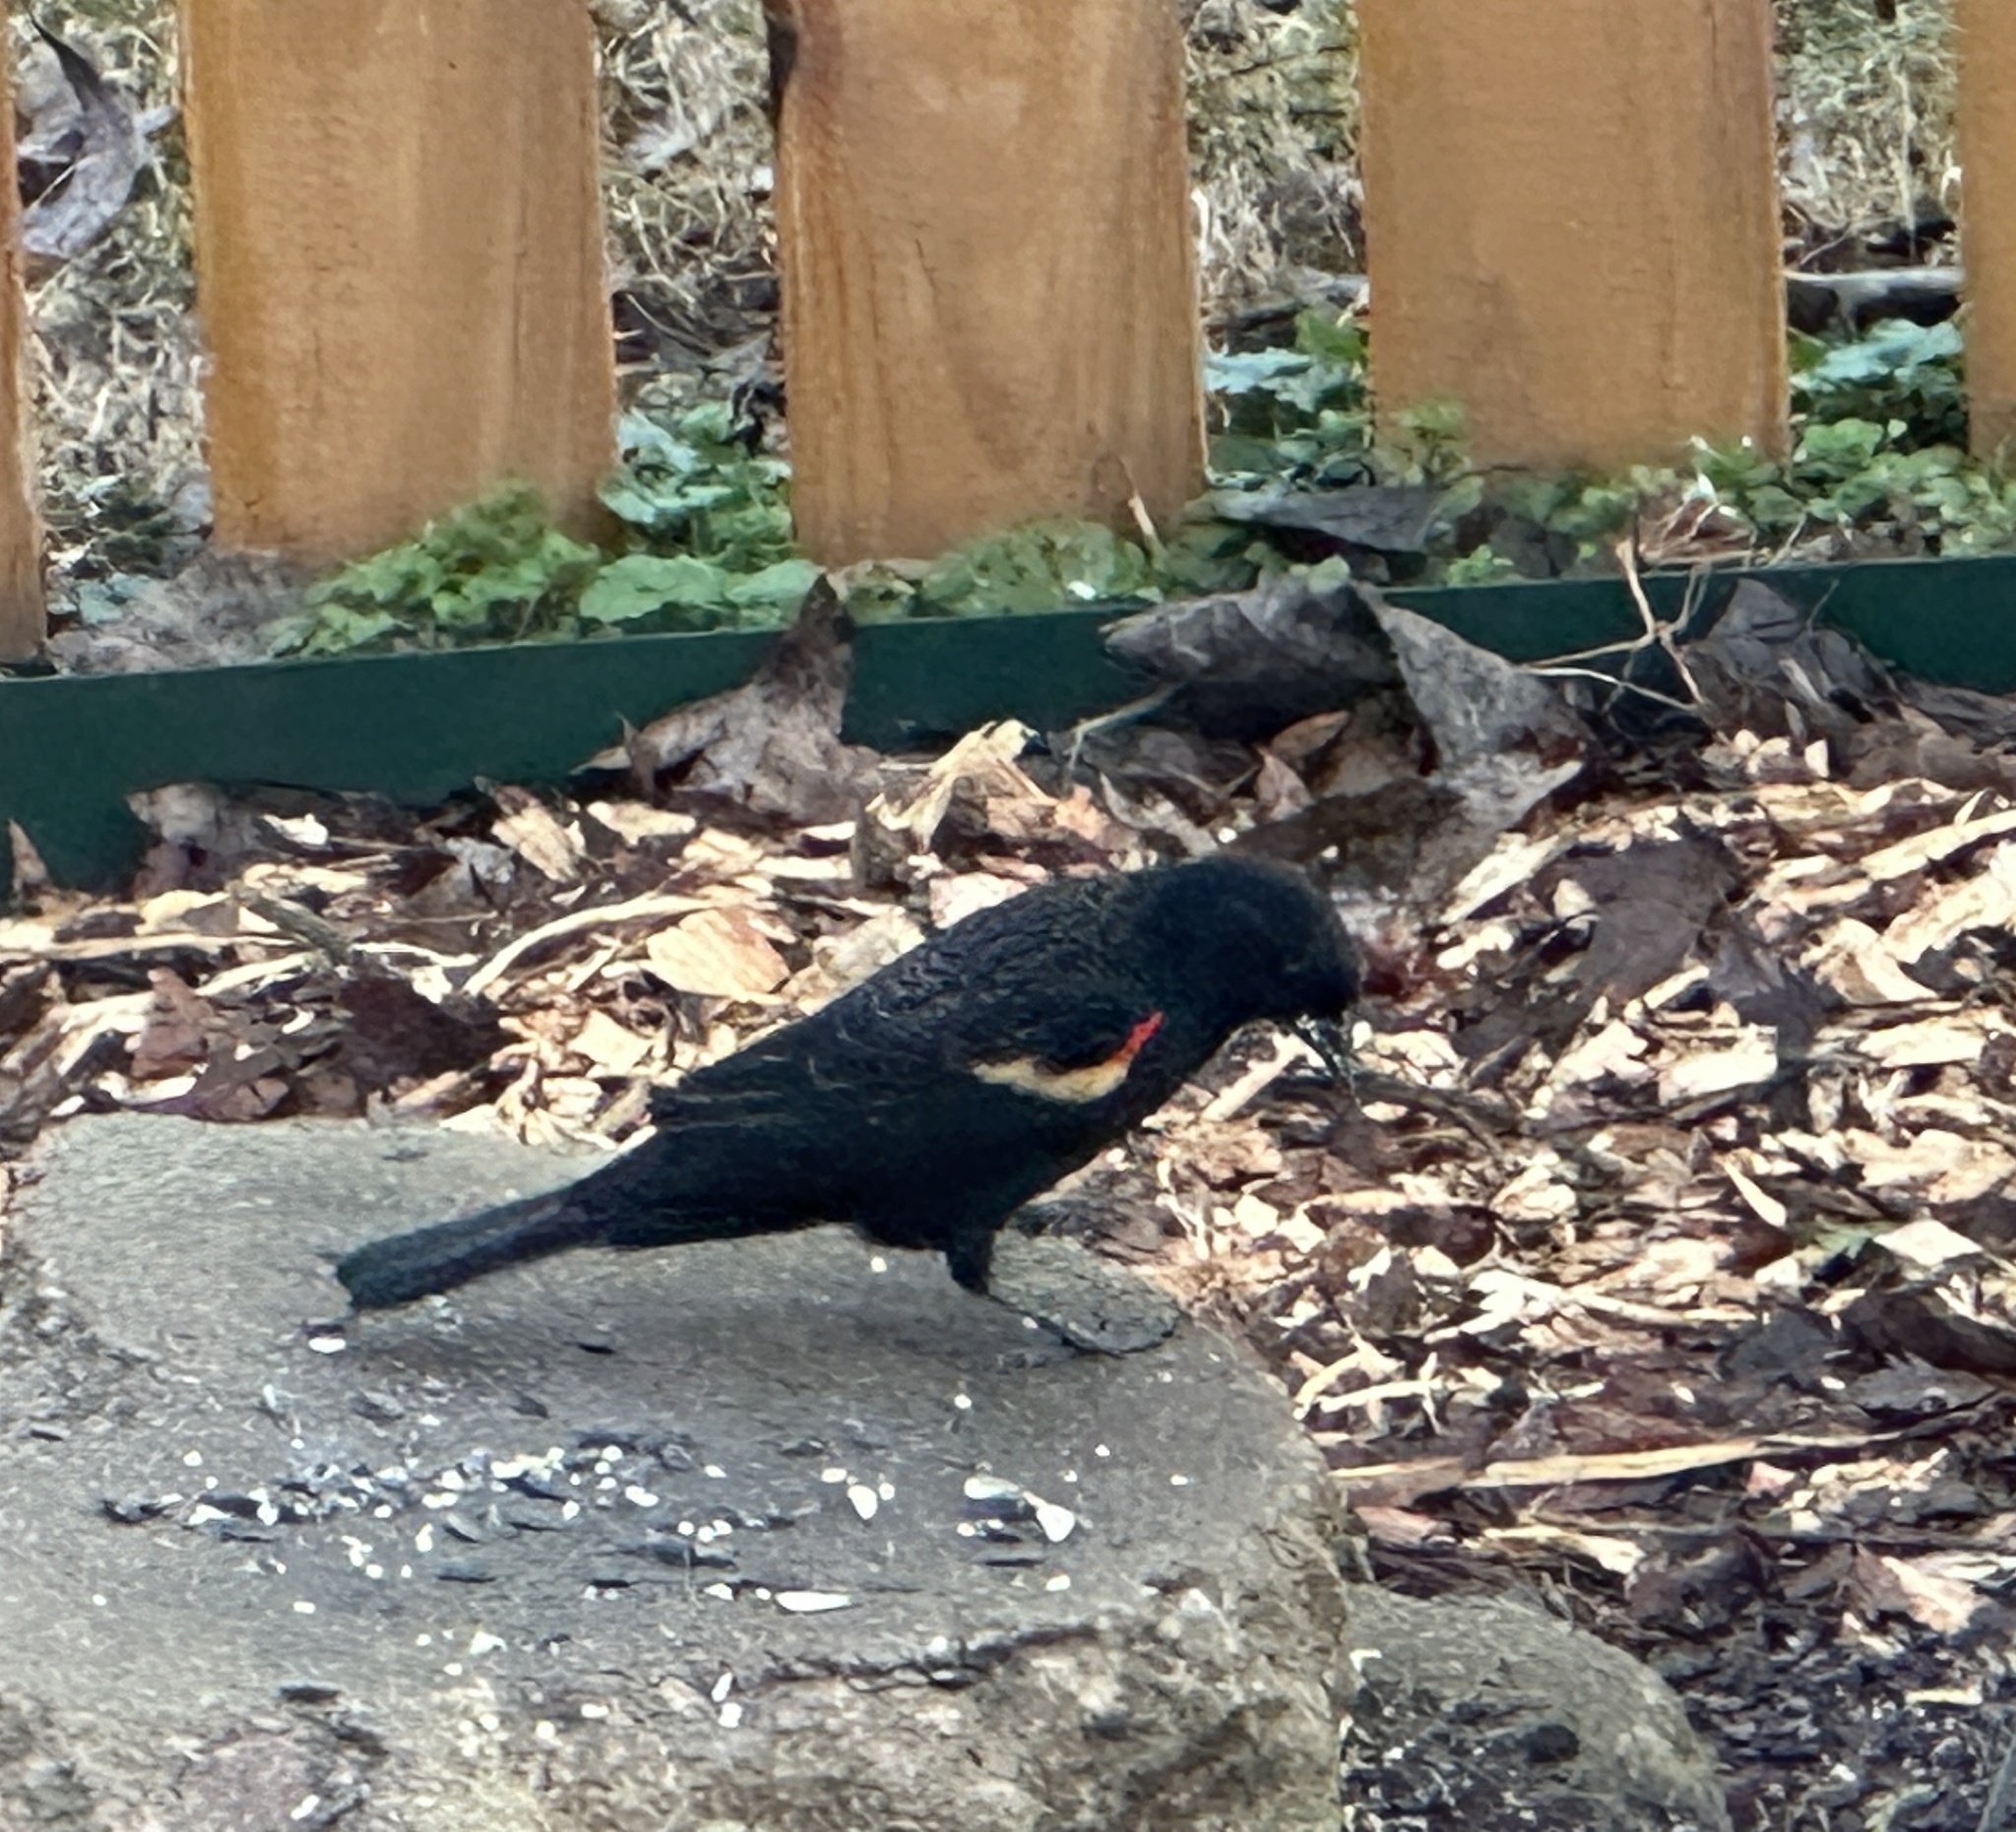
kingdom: Animalia
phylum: Chordata
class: Aves
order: Passeriformes
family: Icteridae
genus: Agelaius
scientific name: Agelaius phoeniceus
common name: Red-winged blackbird
